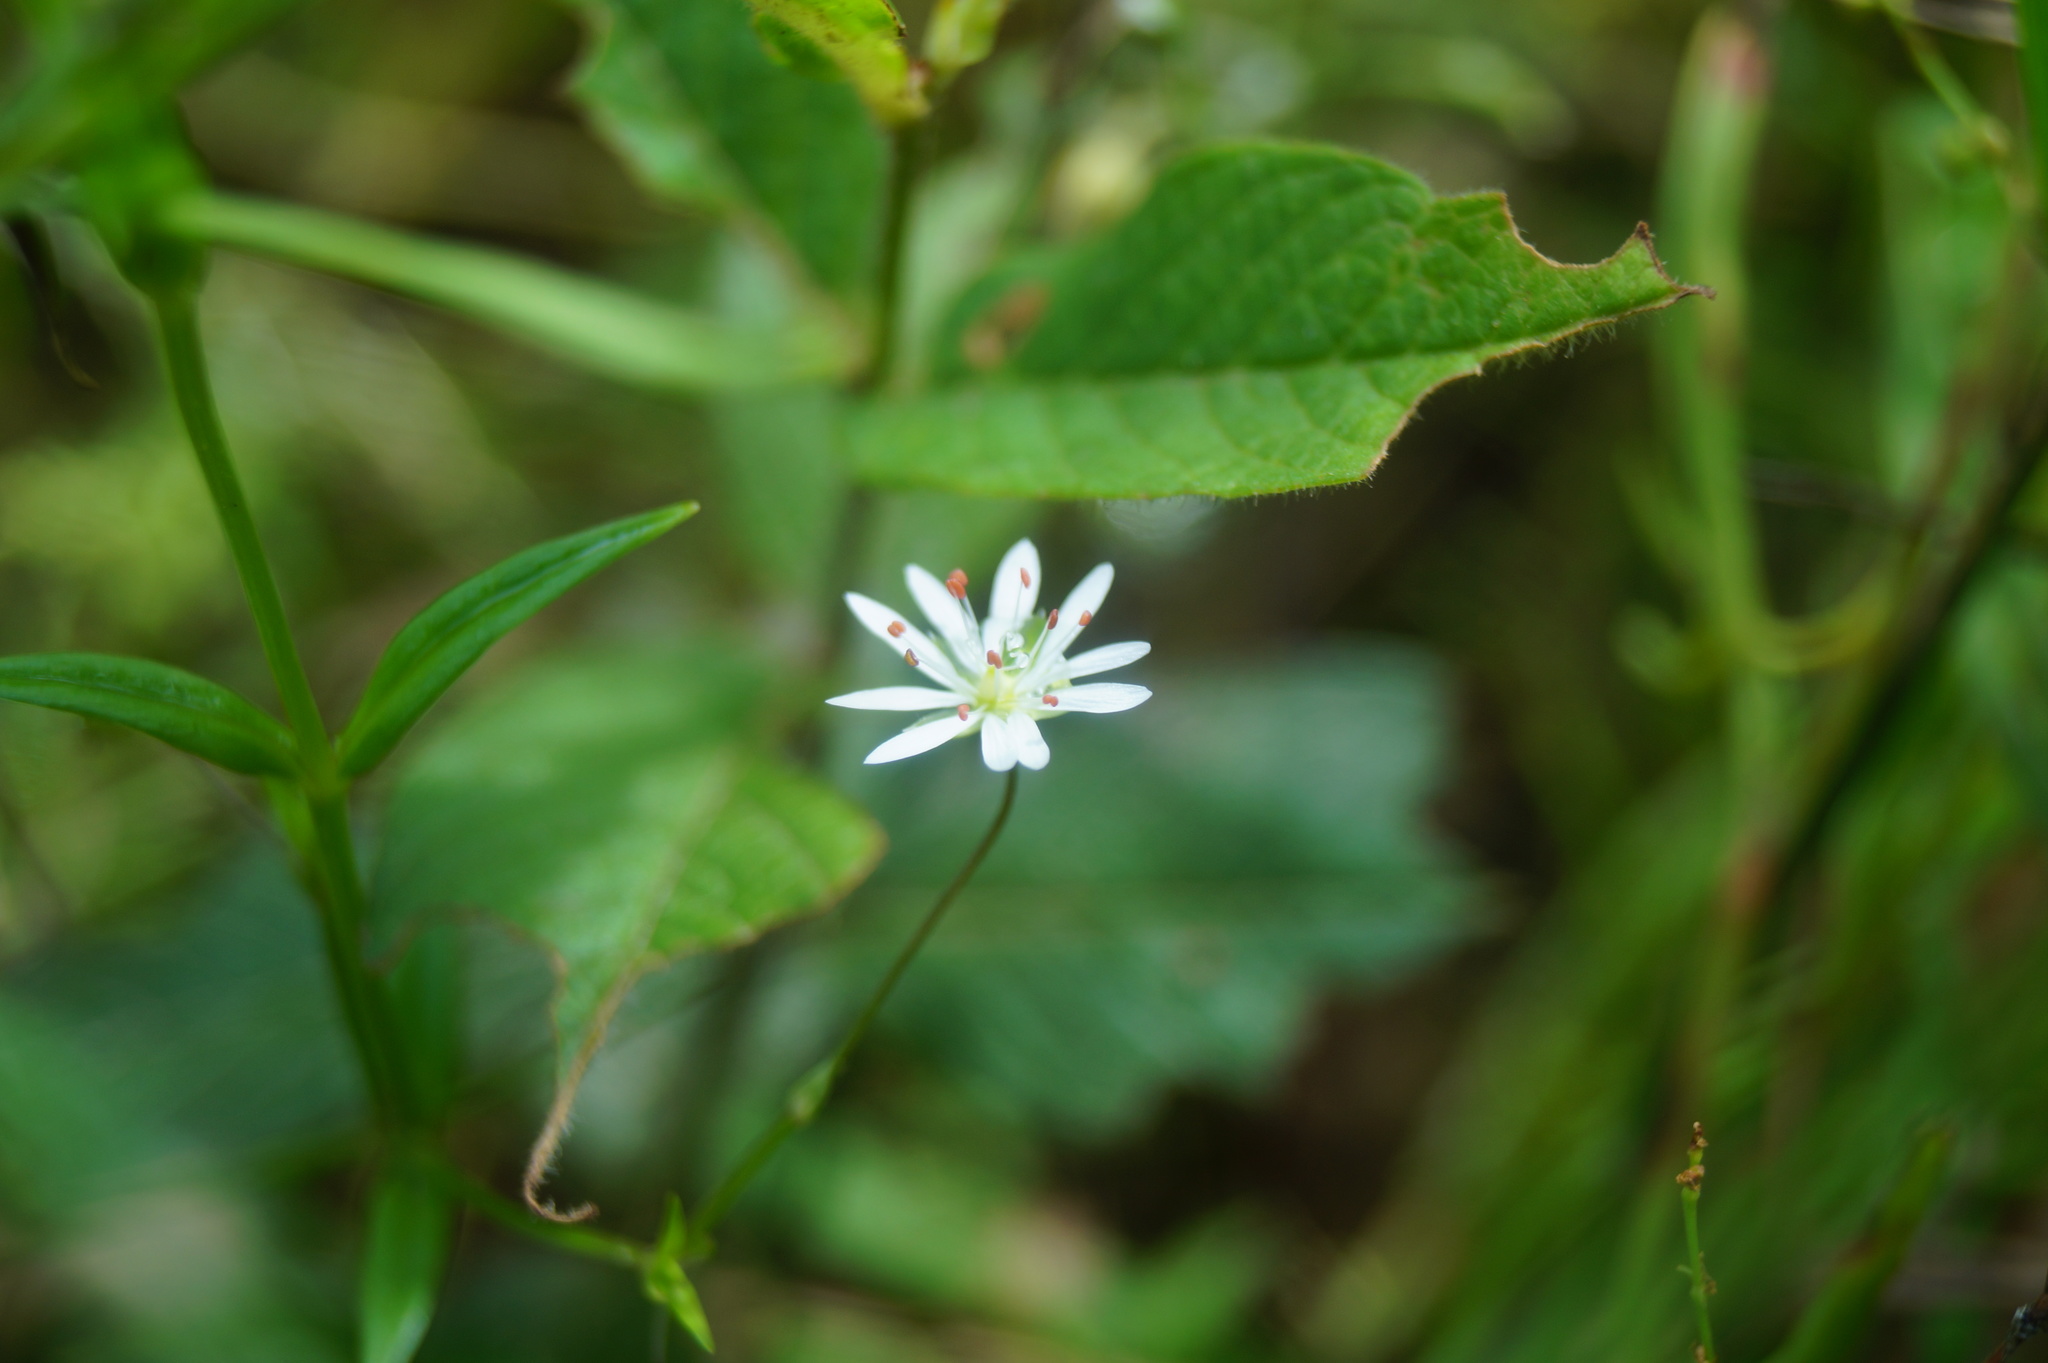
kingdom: Plantae
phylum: Tracheophyta
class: Magnoliopsida
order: Caryophyllales
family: Caryophyllaceae
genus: Stellaria
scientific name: Stellaria graminea
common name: Grass-like starwort
